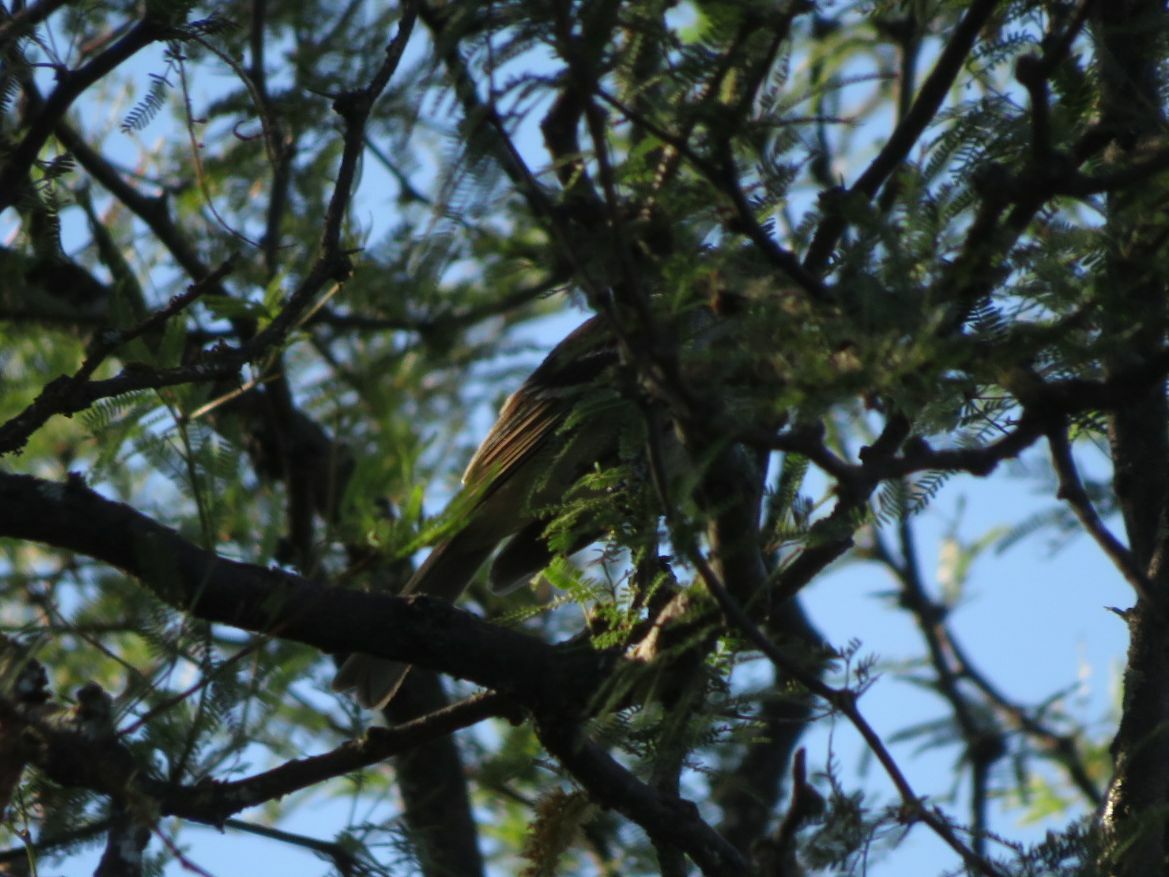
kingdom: Animalia
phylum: Chordata
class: Aves
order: Passeriformes
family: Thamnophilidae
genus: Thamnophilus
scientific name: Thamnophilus caerulescens
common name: Variable antshrike
